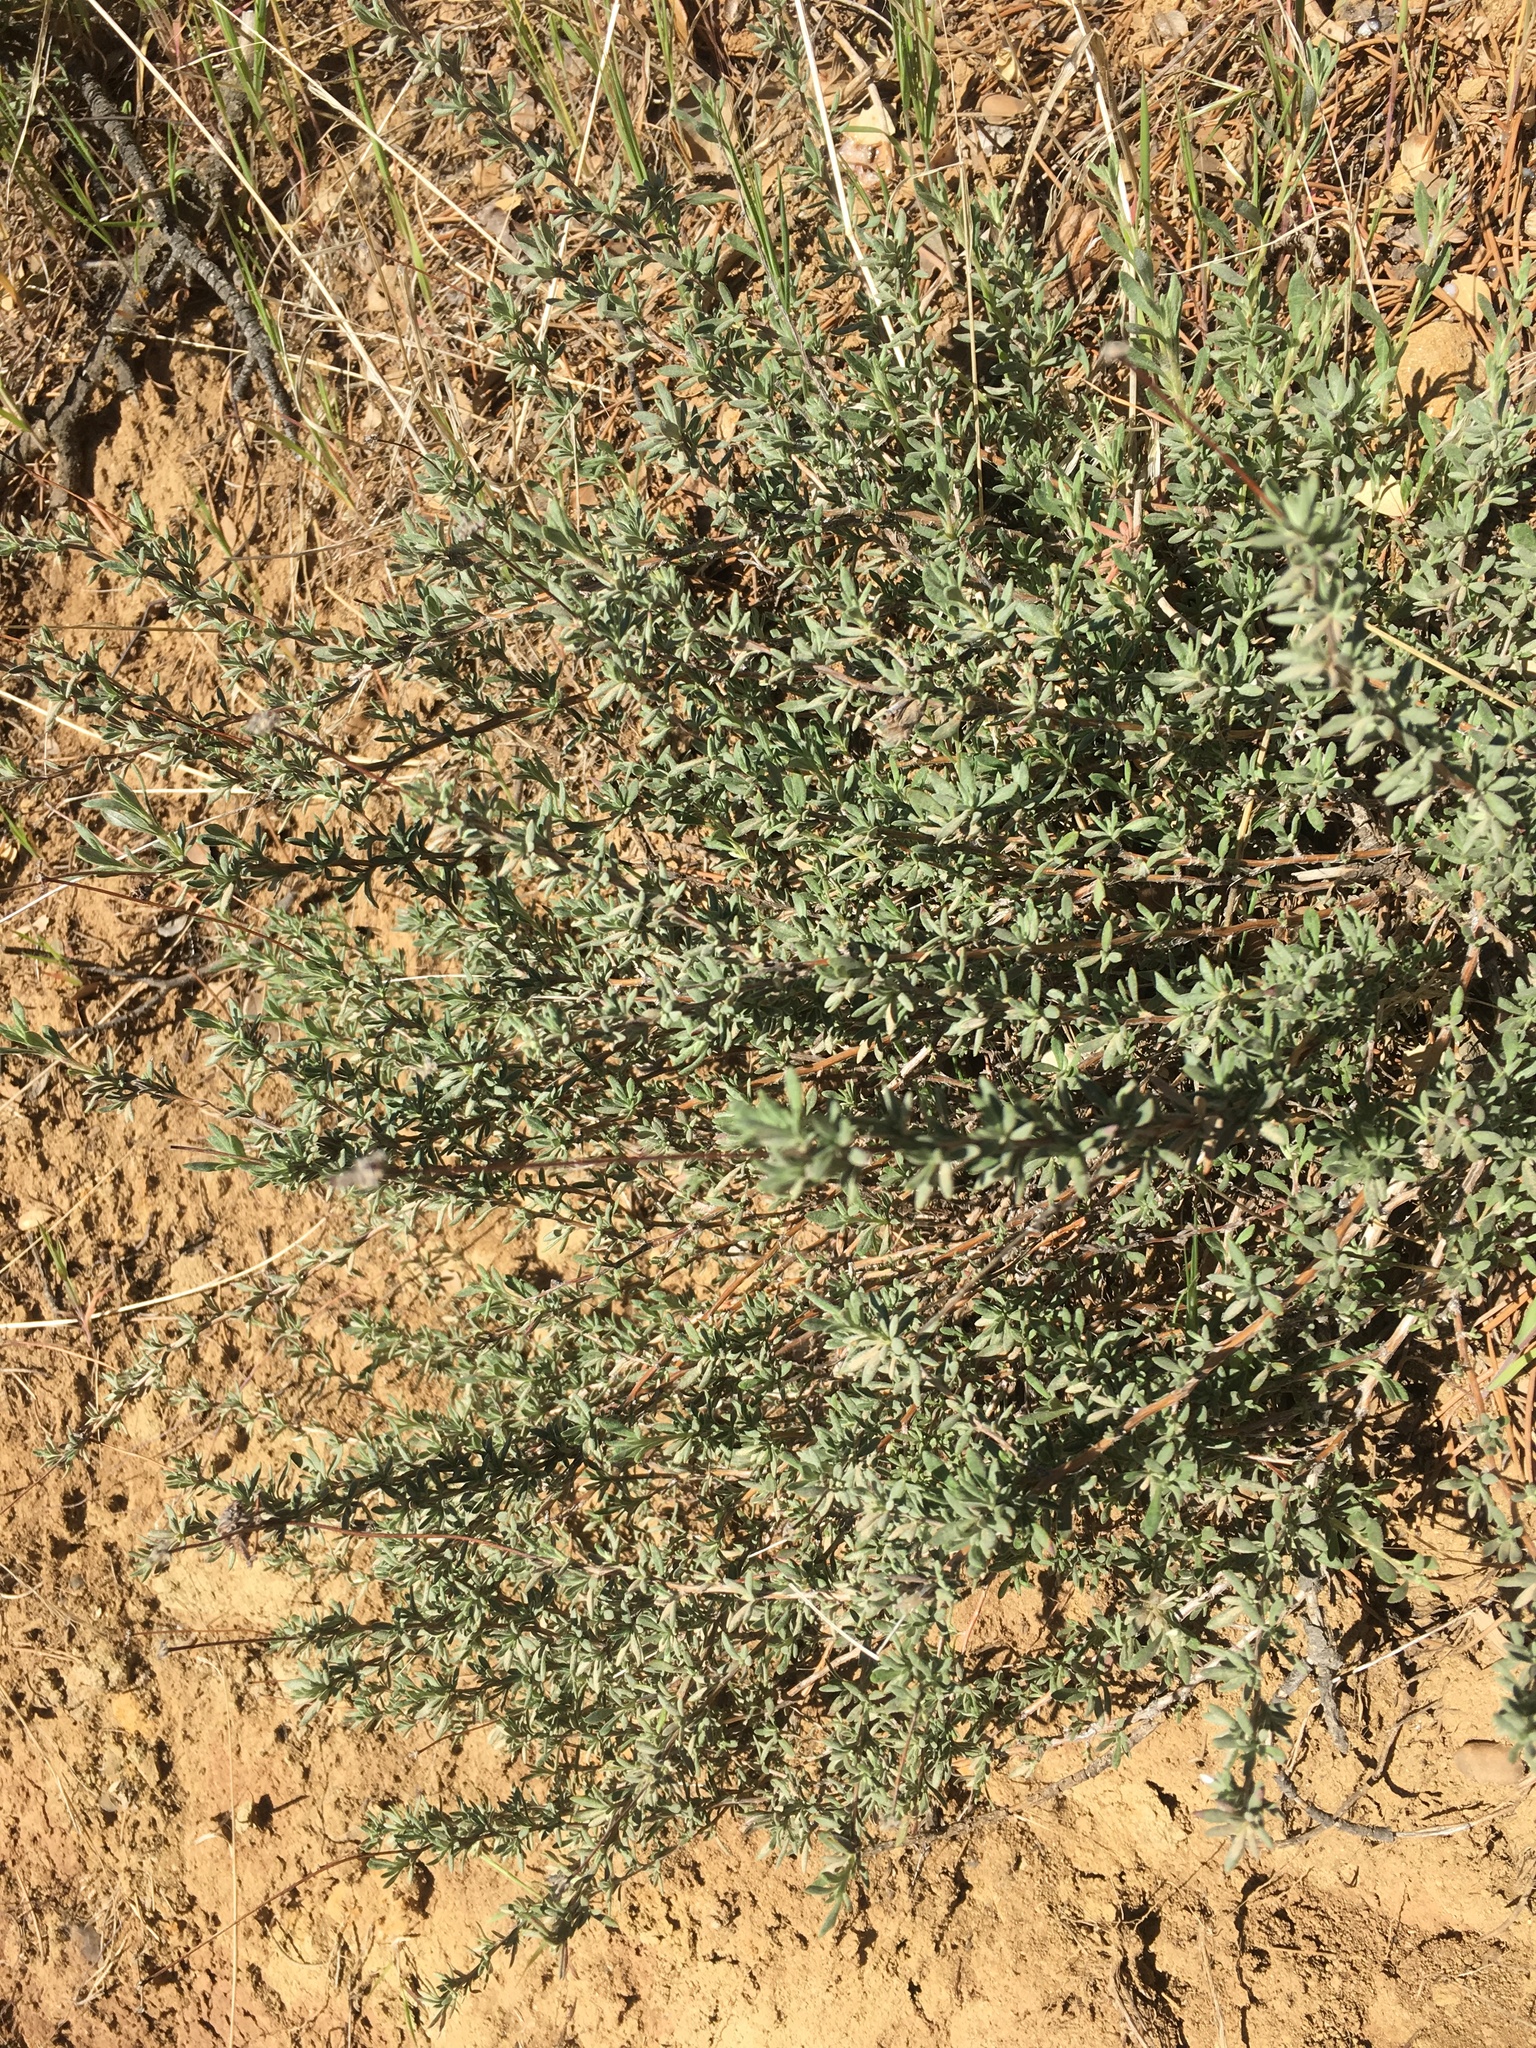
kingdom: Plantae
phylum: Tracheophyta
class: Magnoliopsida
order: Caryophyllales
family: Polygonaceae
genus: Eriogonum
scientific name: Eriogonum fasciculatum
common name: California wild buckwheat
